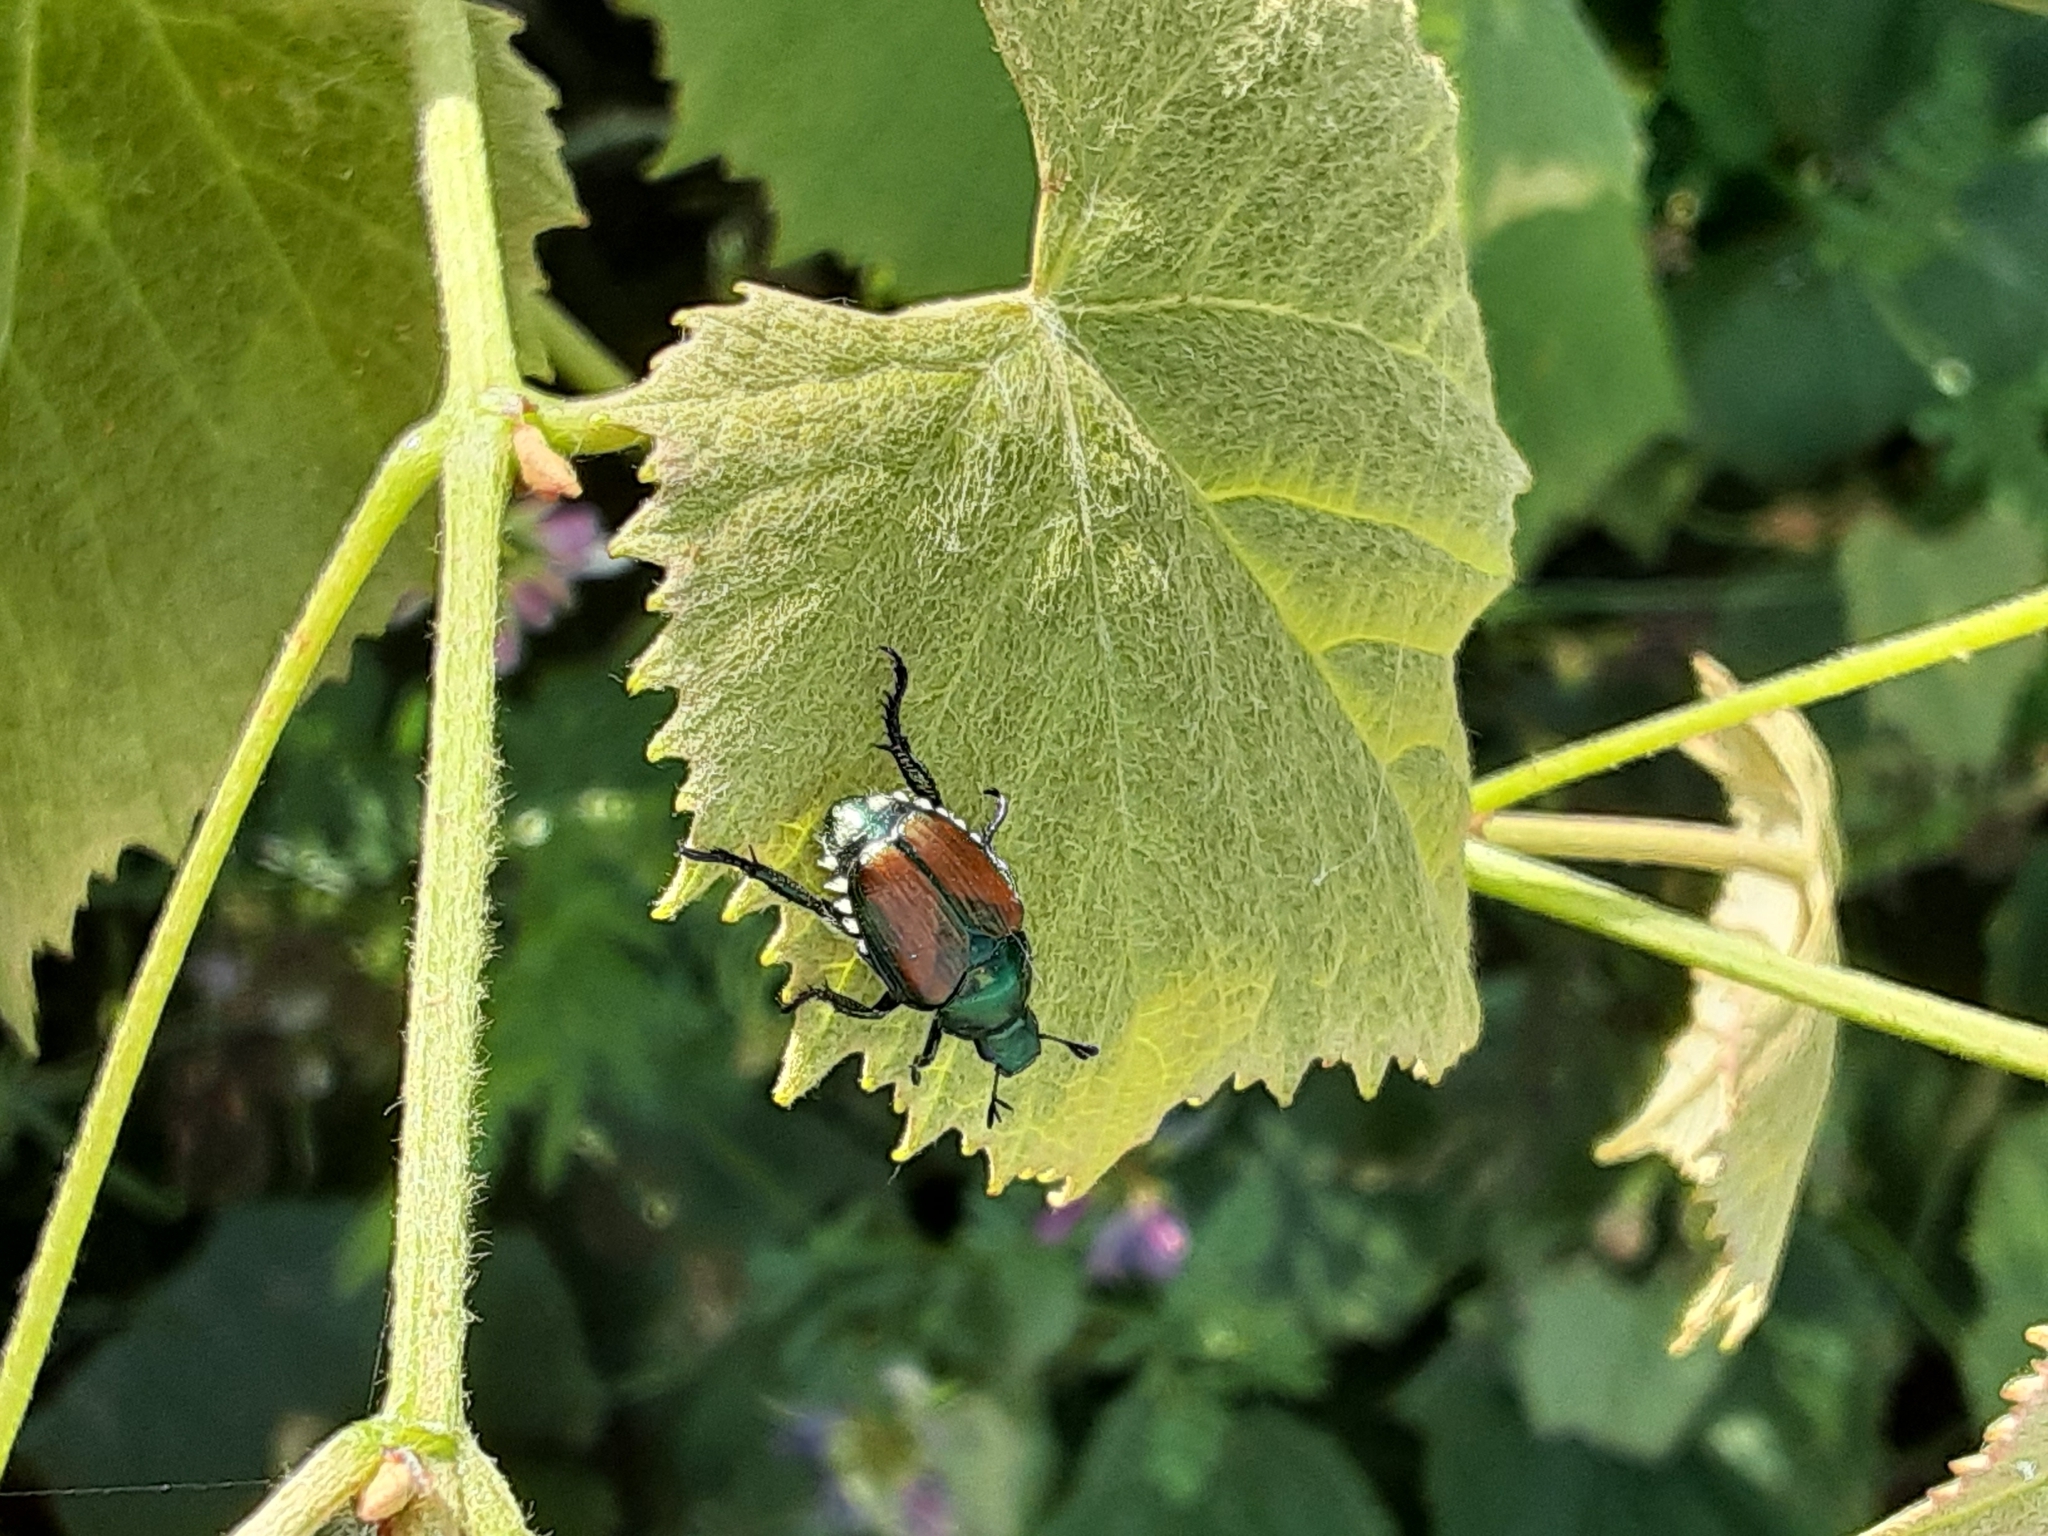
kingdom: Animalia
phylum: Arthropoda
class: Insecta
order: Coleoptera
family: Scarabaeidae
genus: Popillia
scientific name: Popillia japonica
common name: Japanese beetle
